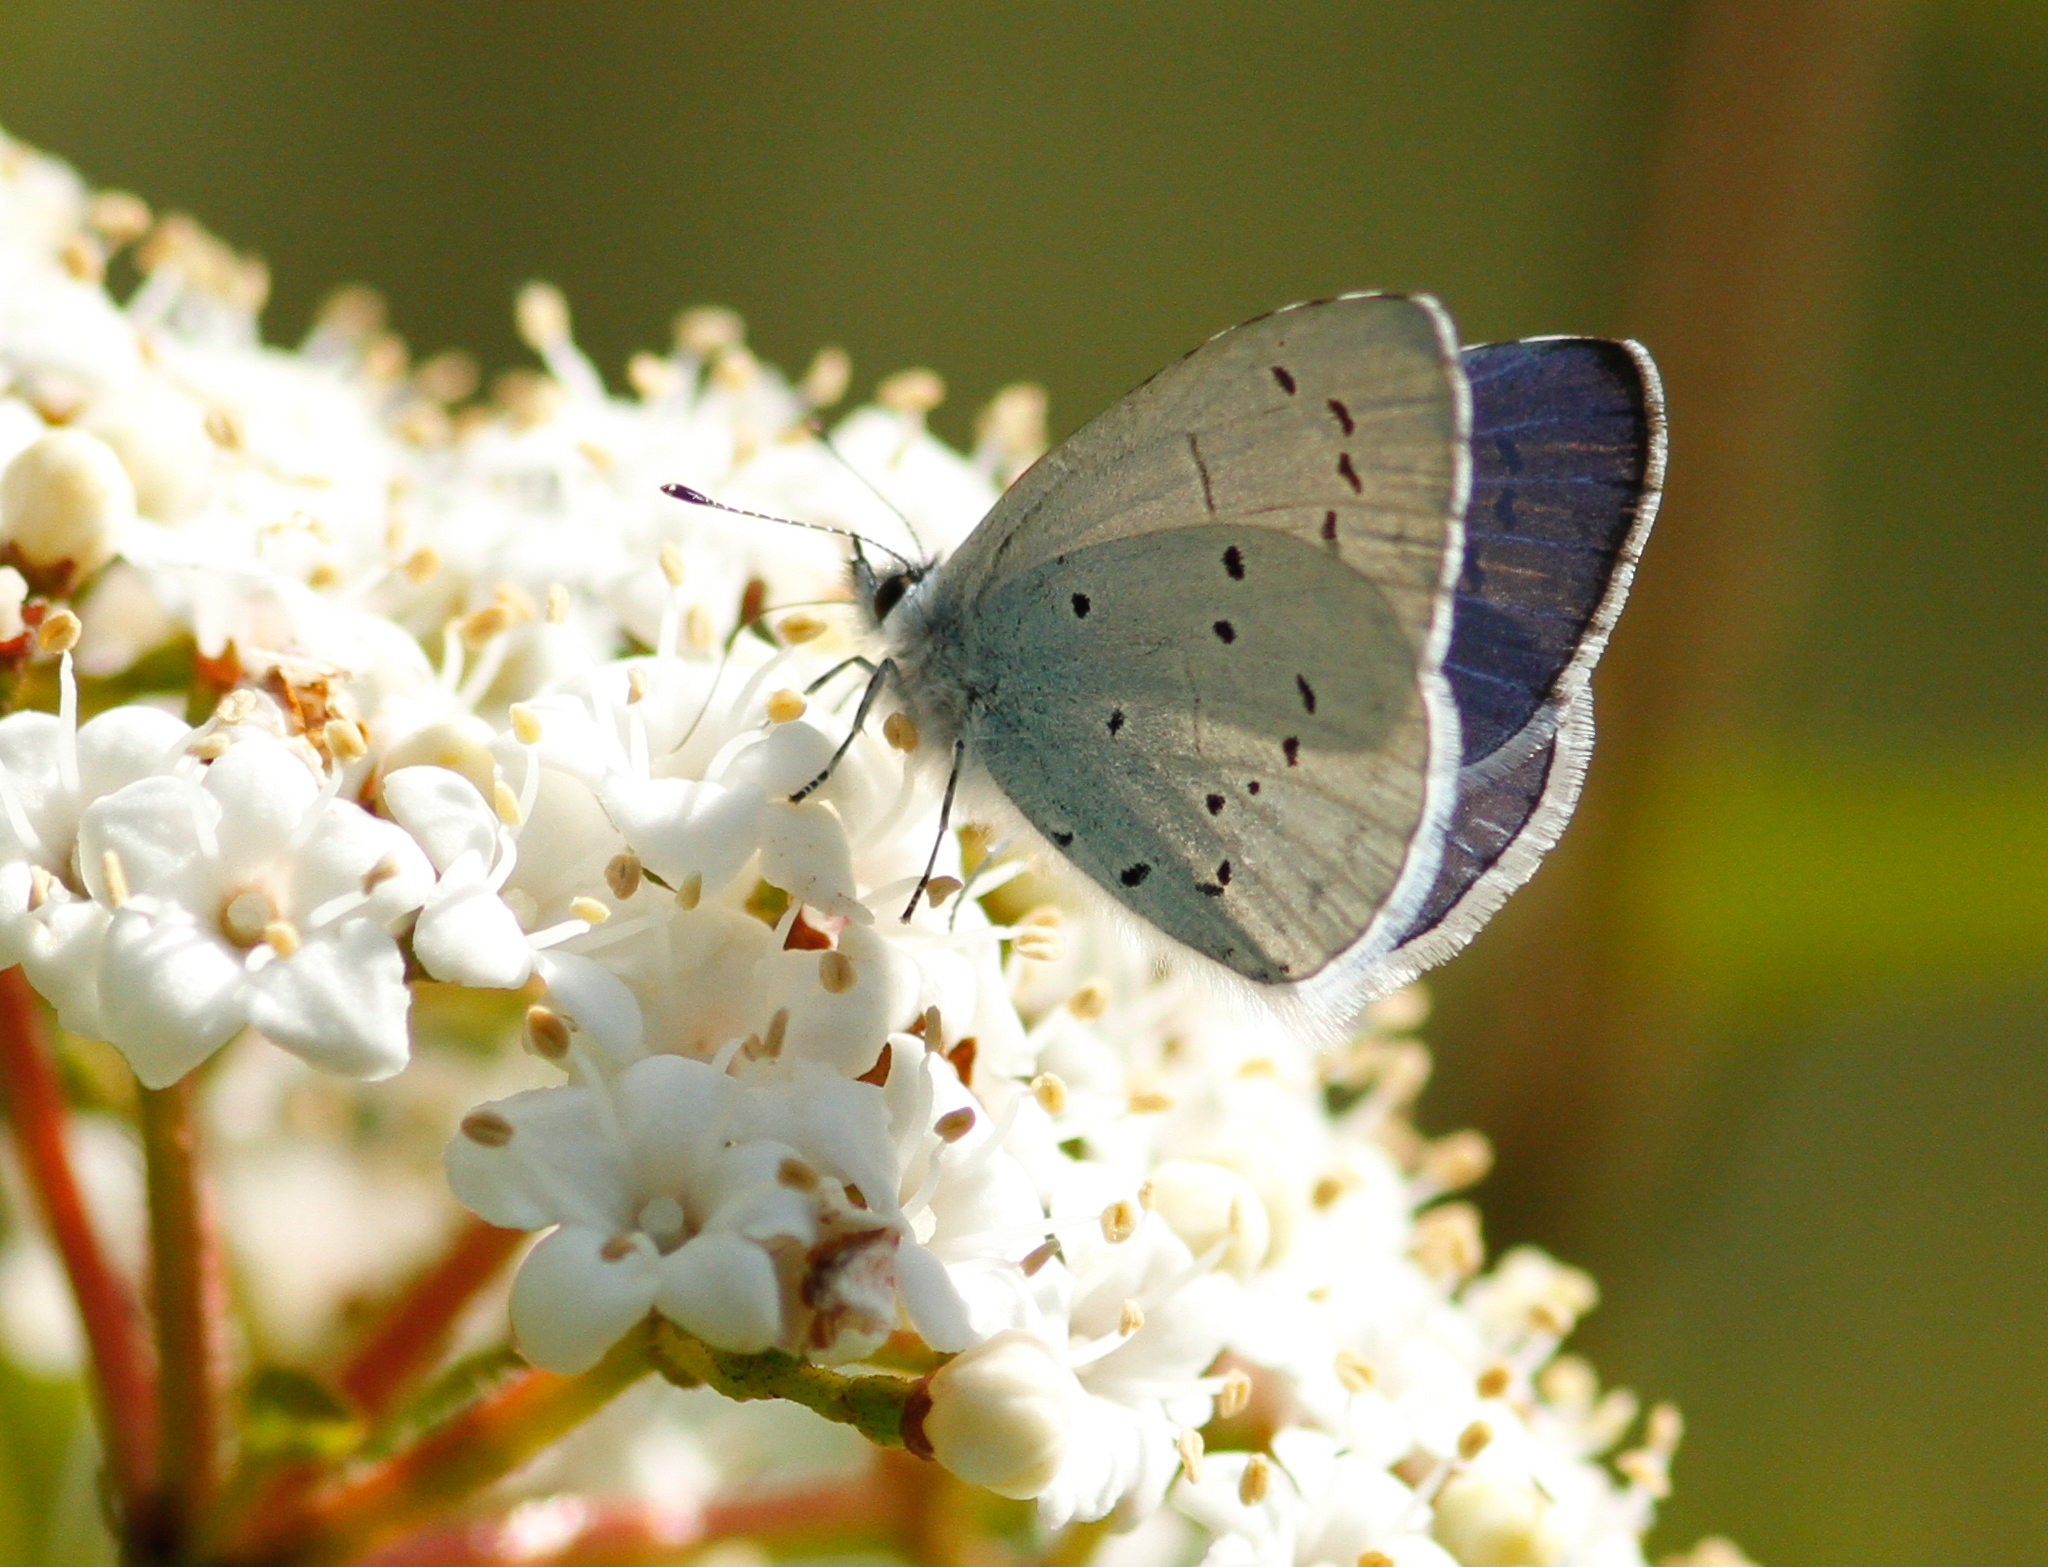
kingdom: Animalia
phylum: Arthropoda
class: Insecta
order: Lepidoptera
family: Lycaenidae
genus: Celastrina
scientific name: Celastrina argiolus
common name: Holly blue
